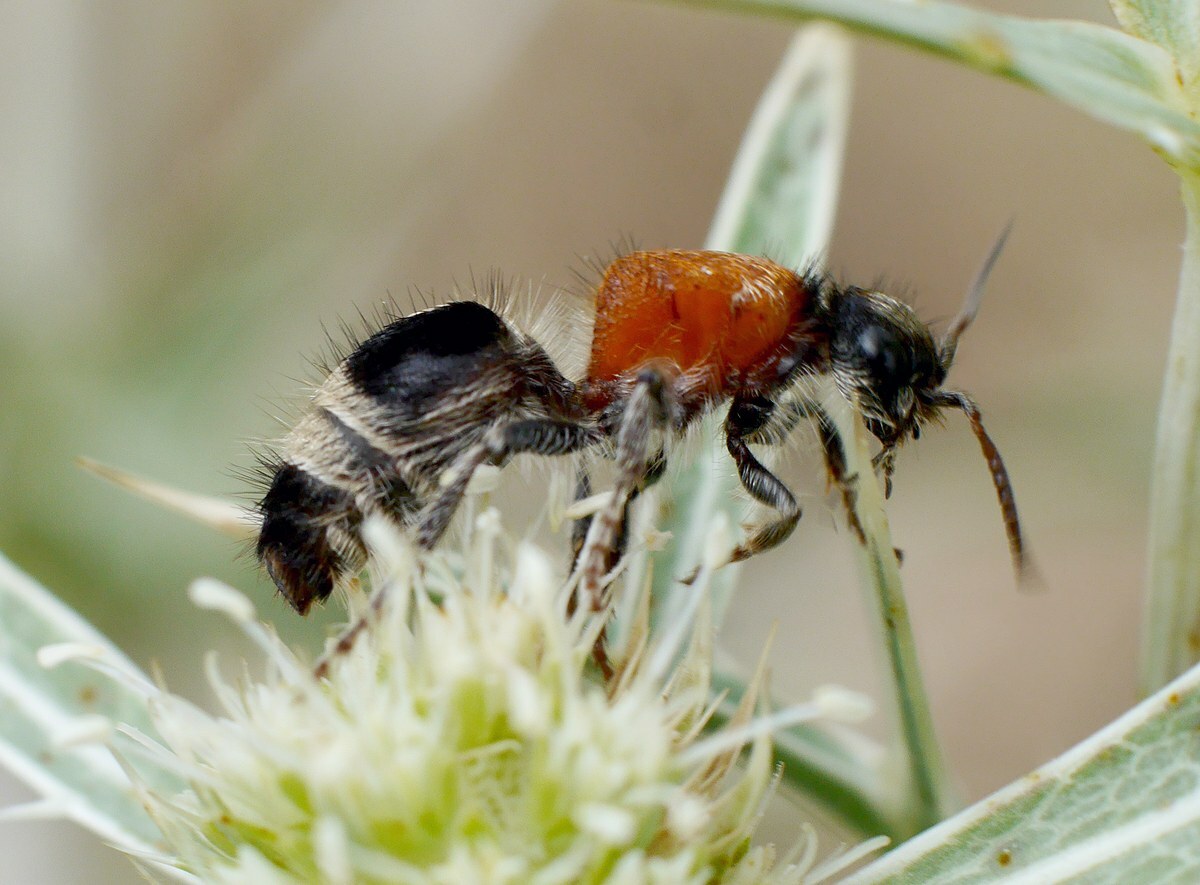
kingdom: Animalia
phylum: Arthropoda
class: Insecta
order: Hymenoptera
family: Mutillidae
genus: Nemka
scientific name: Nemka viduata
